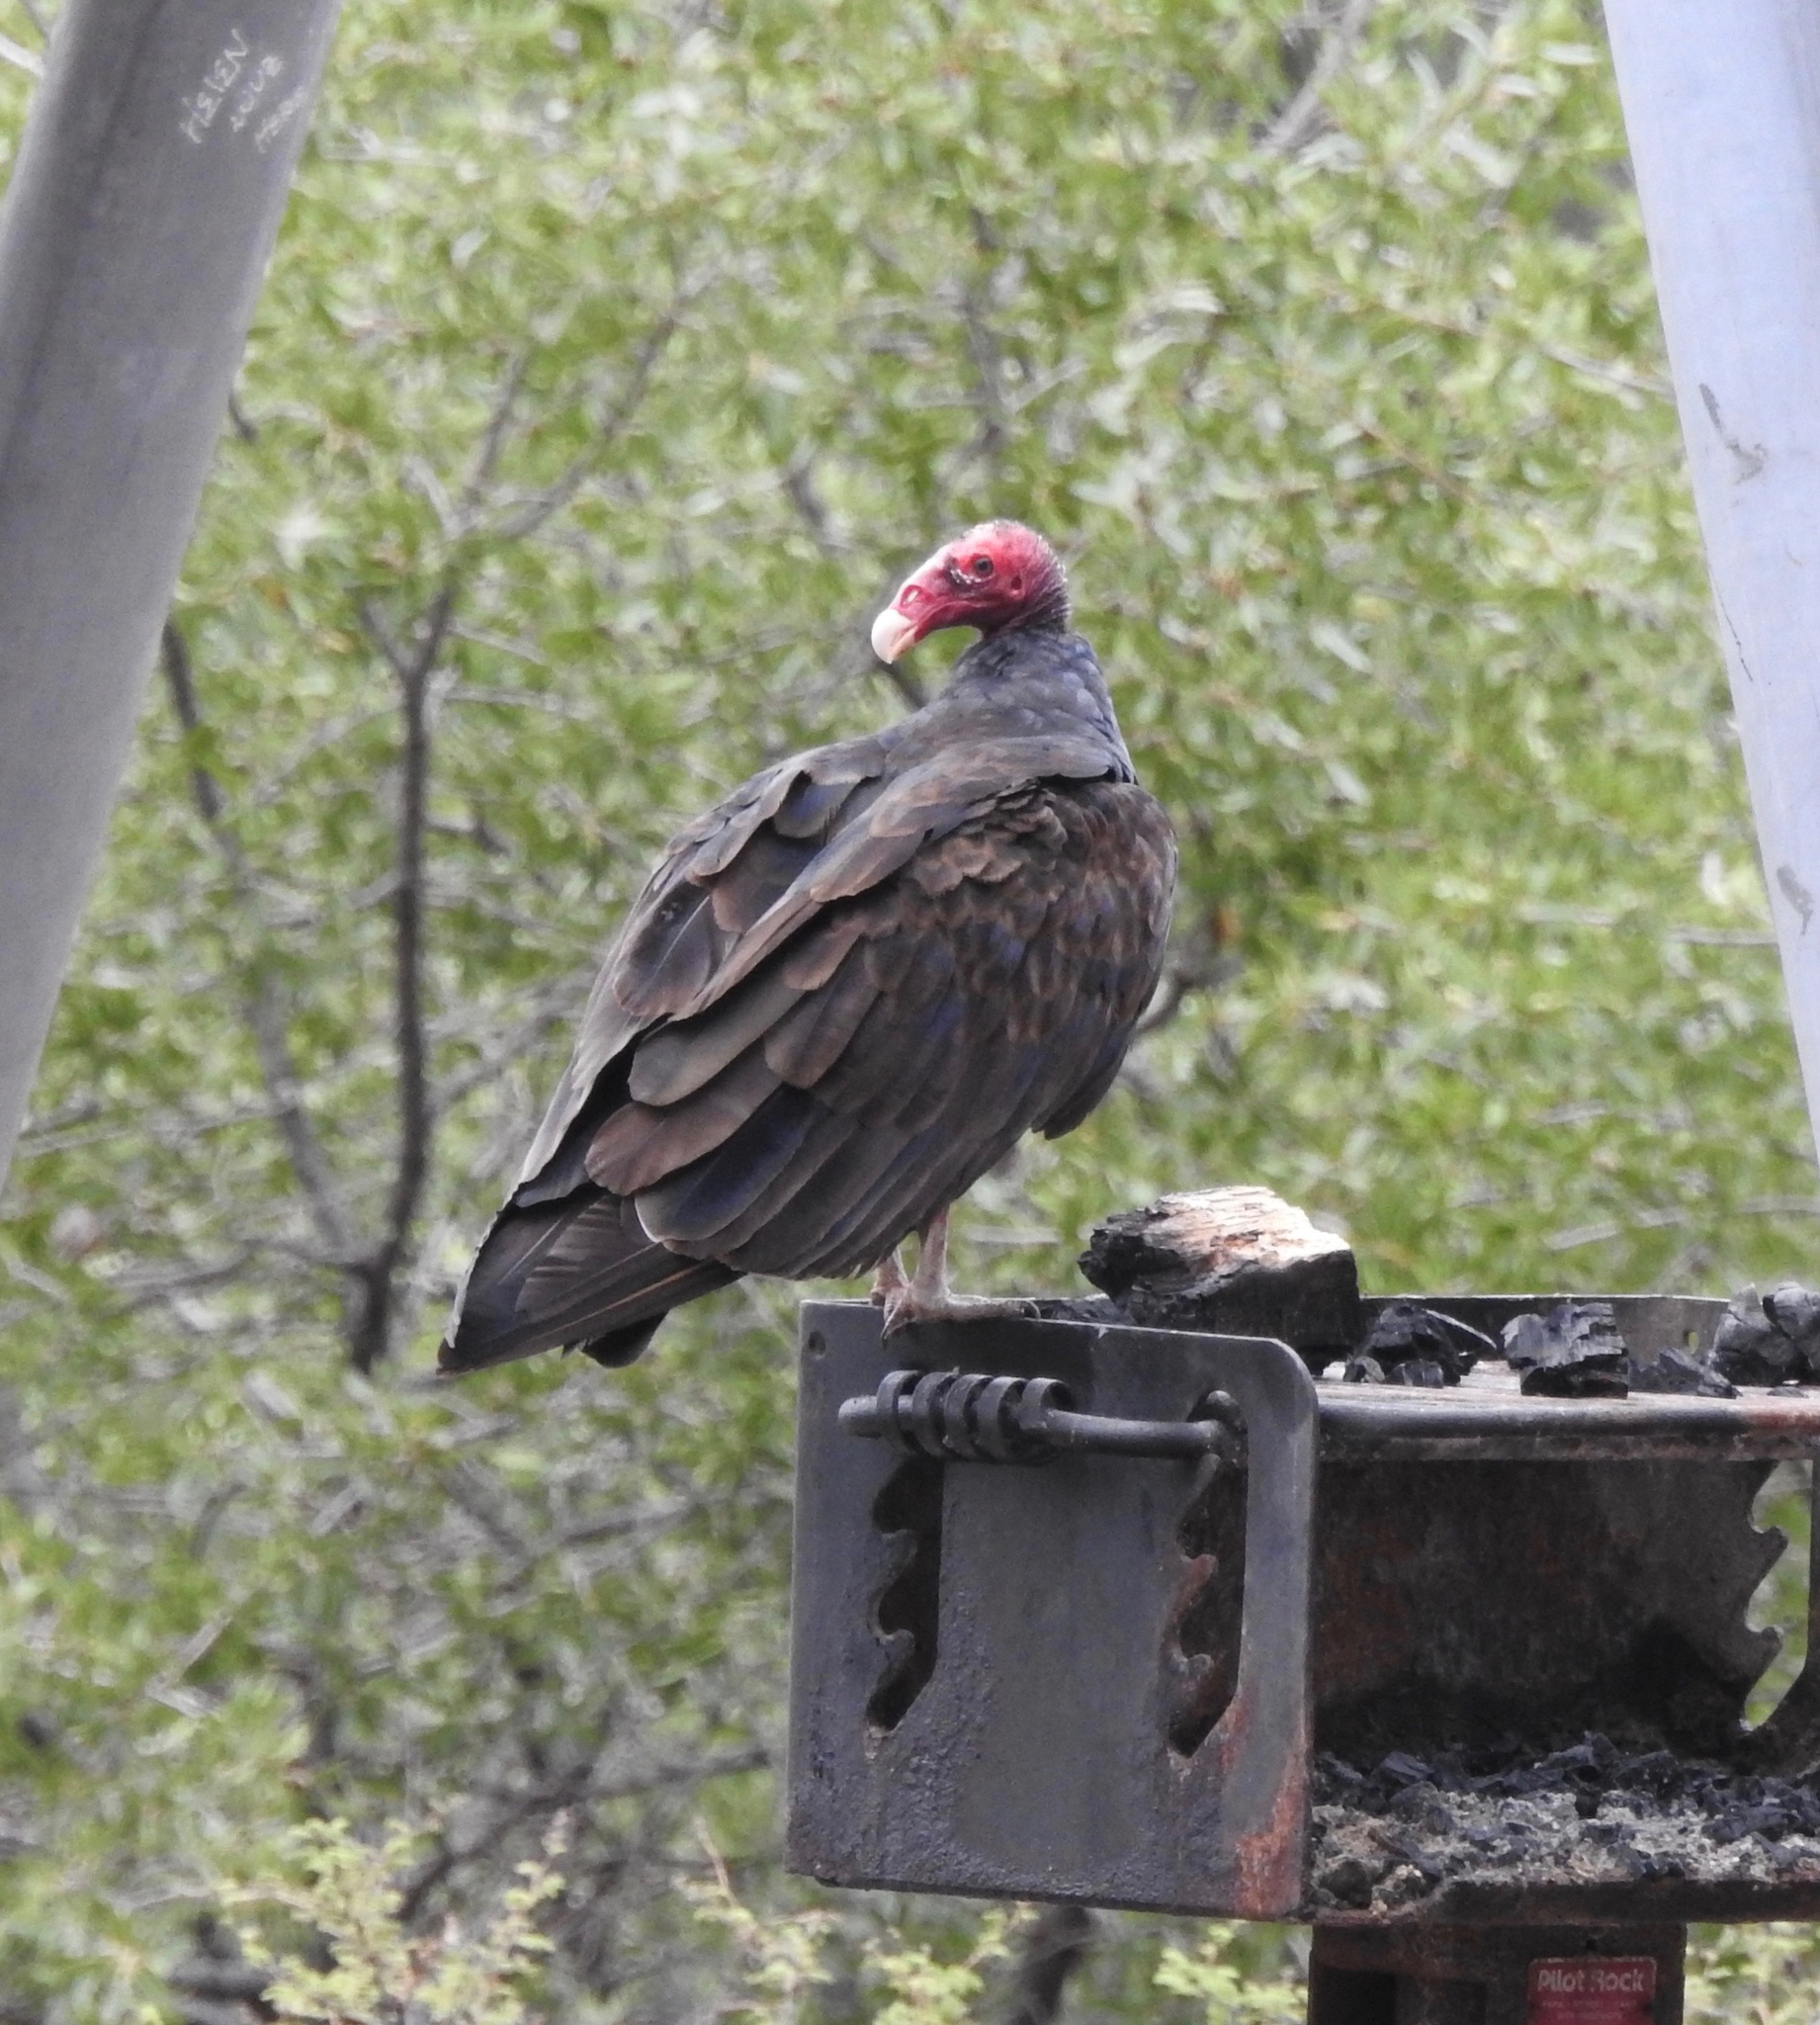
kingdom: Animalia
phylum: Chordata
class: Aves
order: Accipitriformes
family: Cathartidae
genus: Cathartes
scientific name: Cathartes aura
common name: Turkey vulture
